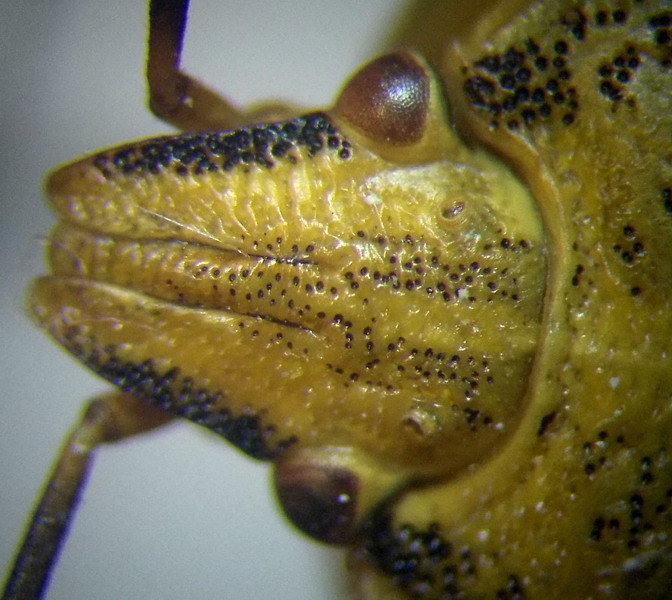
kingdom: Animalia
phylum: Arthropoda
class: Insecta
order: Hemiptera
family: Pentatomidae
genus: Carpocoris
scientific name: Carpocoris fuscispinus
